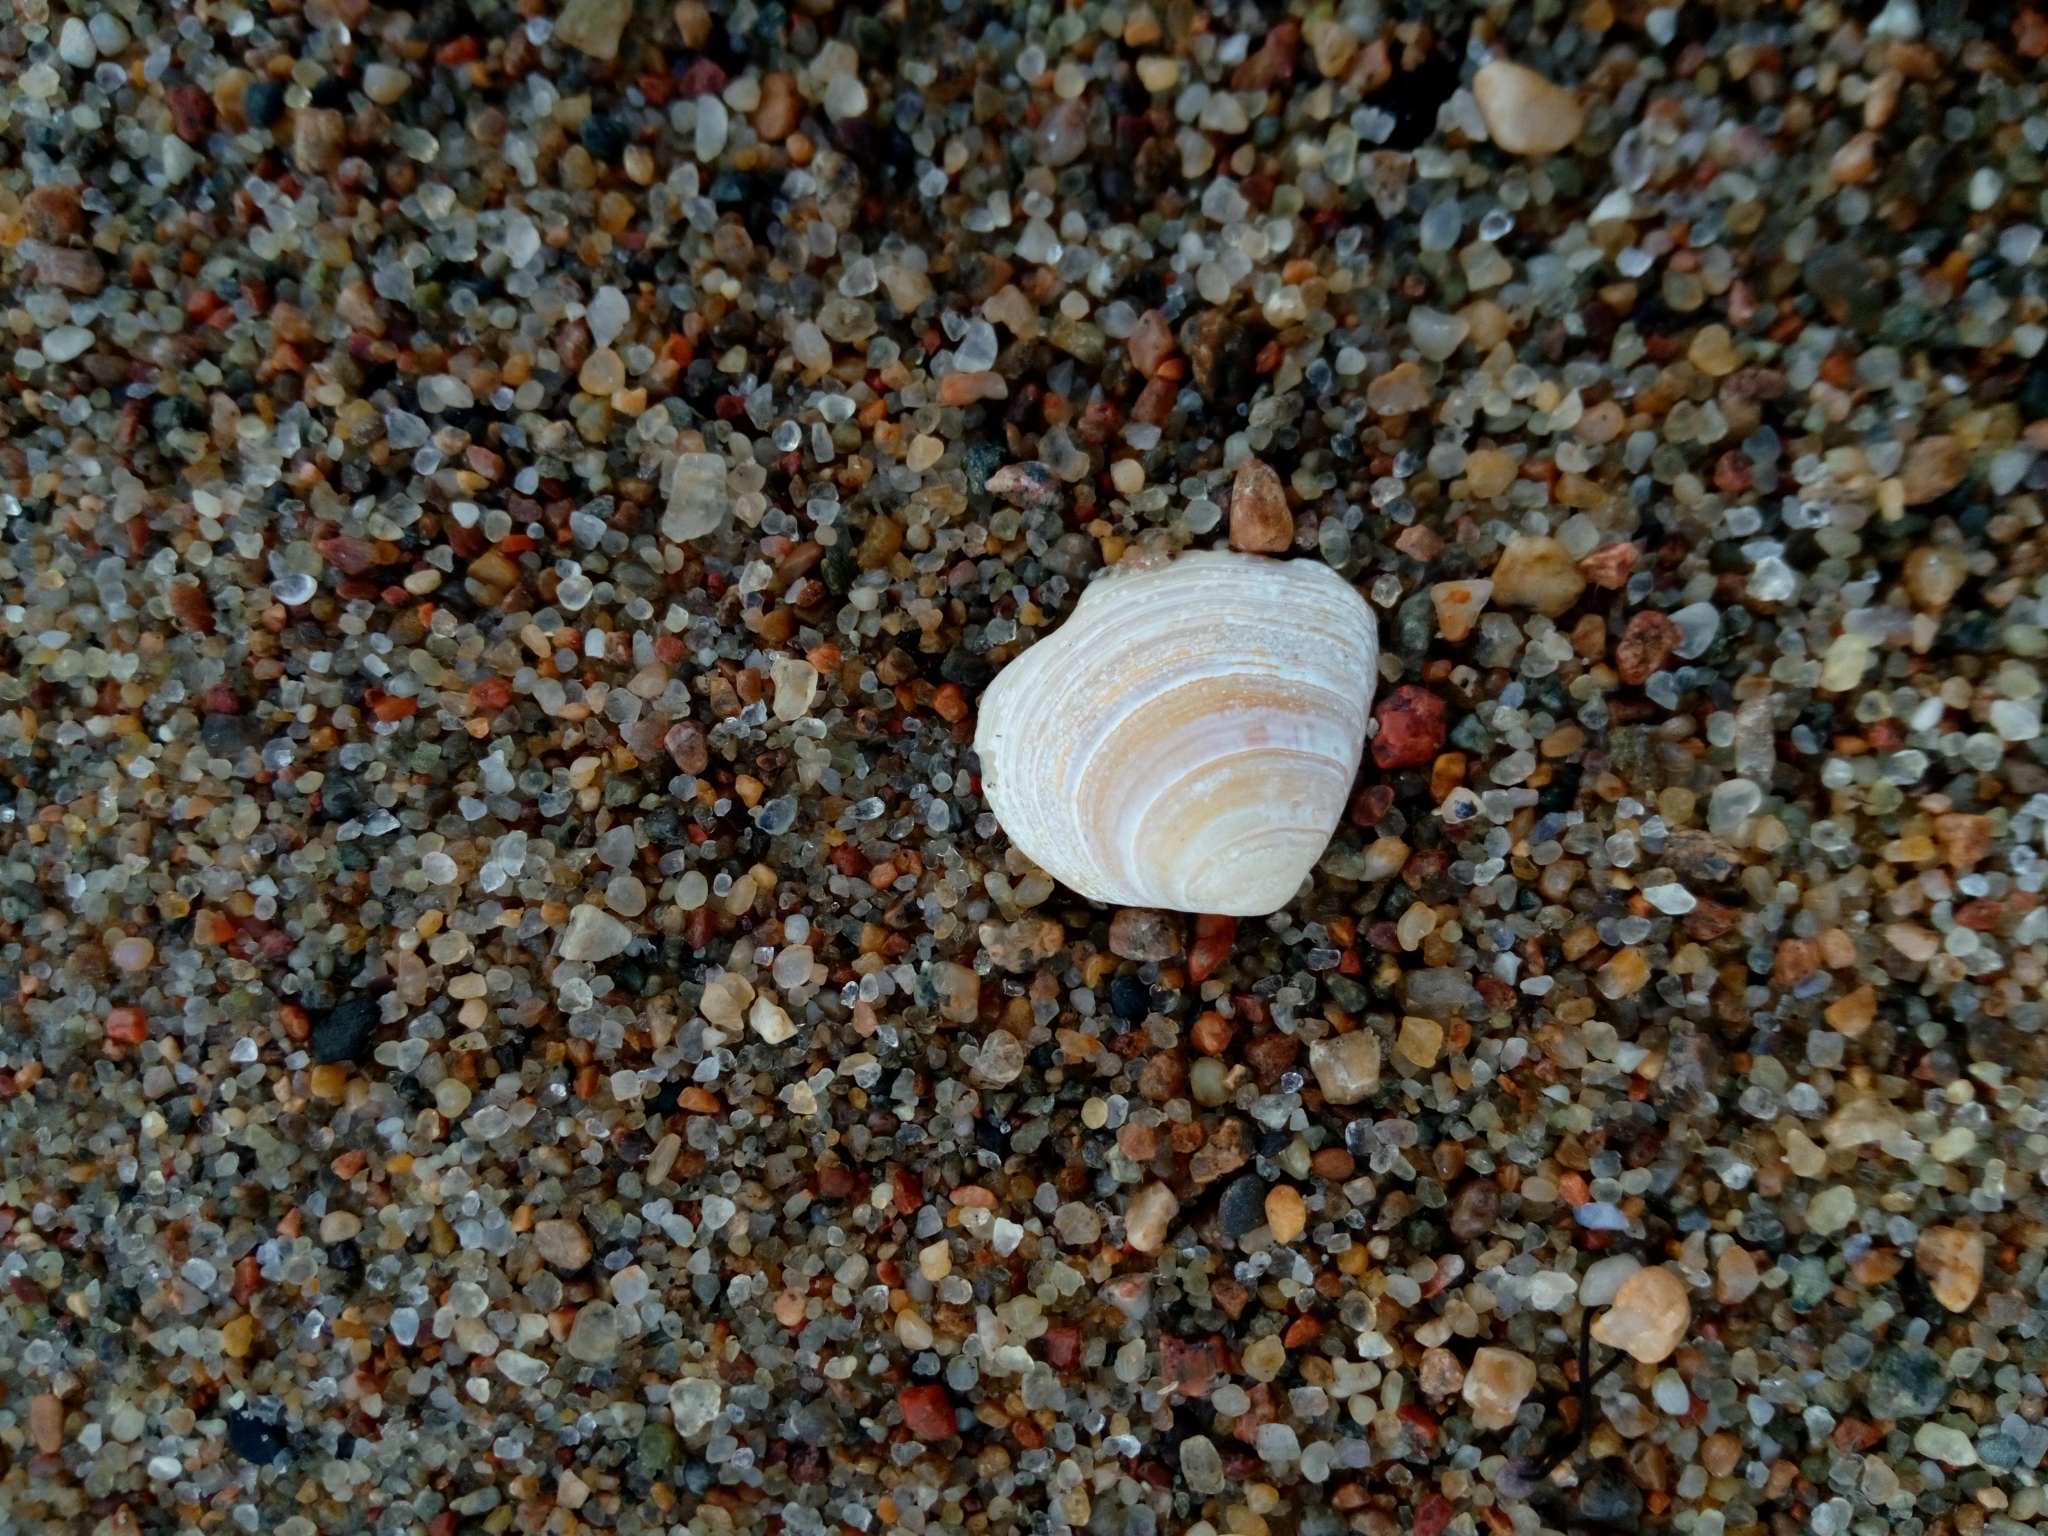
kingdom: Animalia
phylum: Mollusca
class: Bivalvia
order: Cardiida
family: Tellinidae
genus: Macoma
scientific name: Macoma balthica
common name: Baltic tellin
